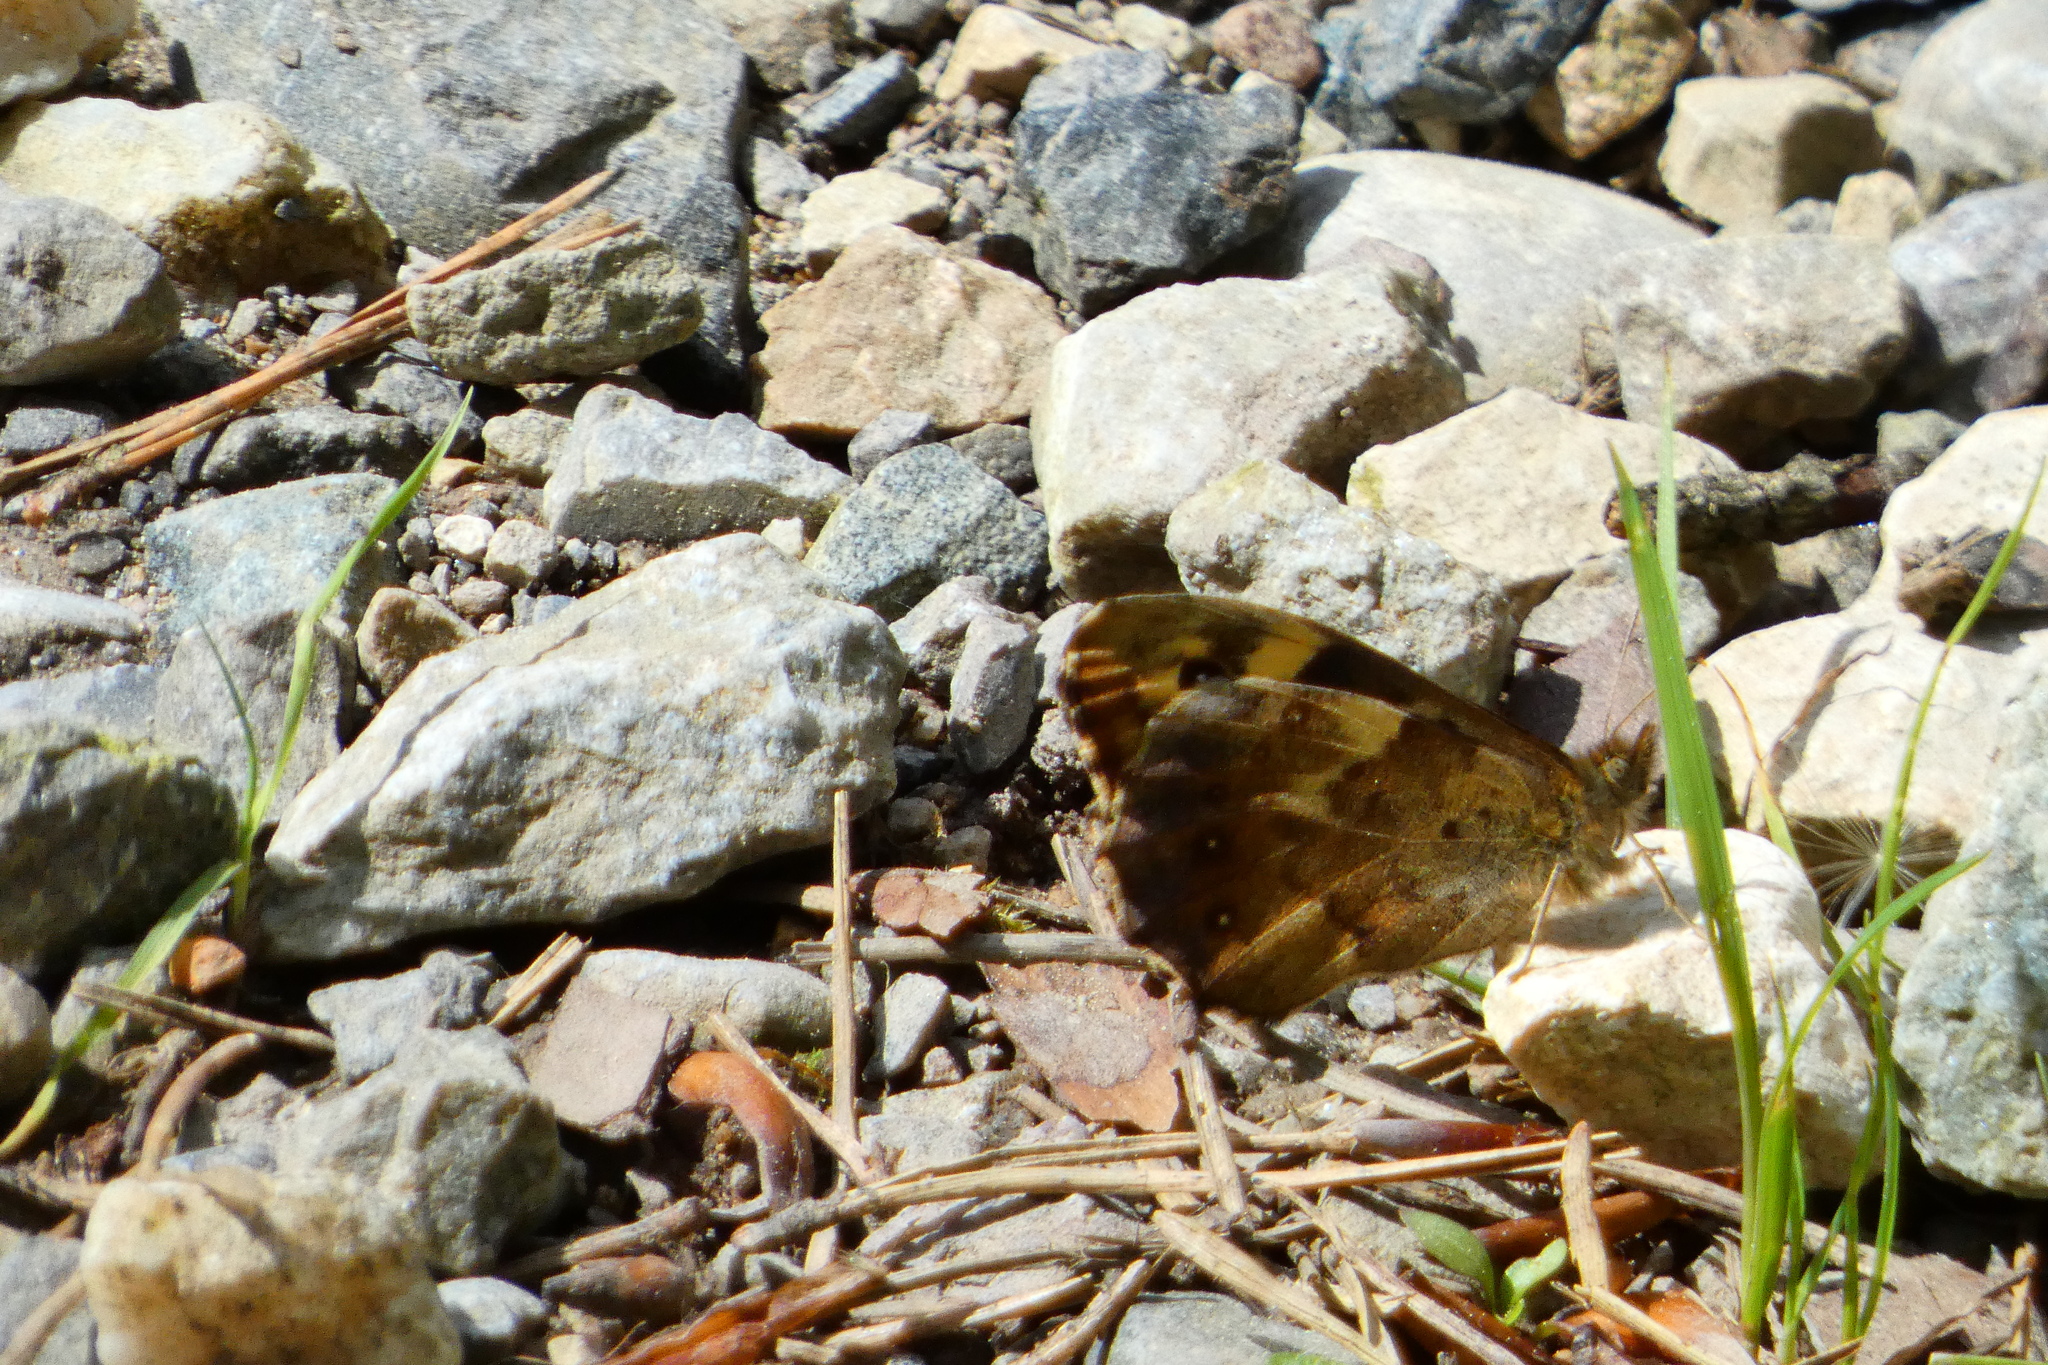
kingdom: Animalia
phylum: Arthropoda
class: Insecta
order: Lepidoptera
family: Nymphalidae
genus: Pararge
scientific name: Pararge aegeria
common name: Speckled wood
